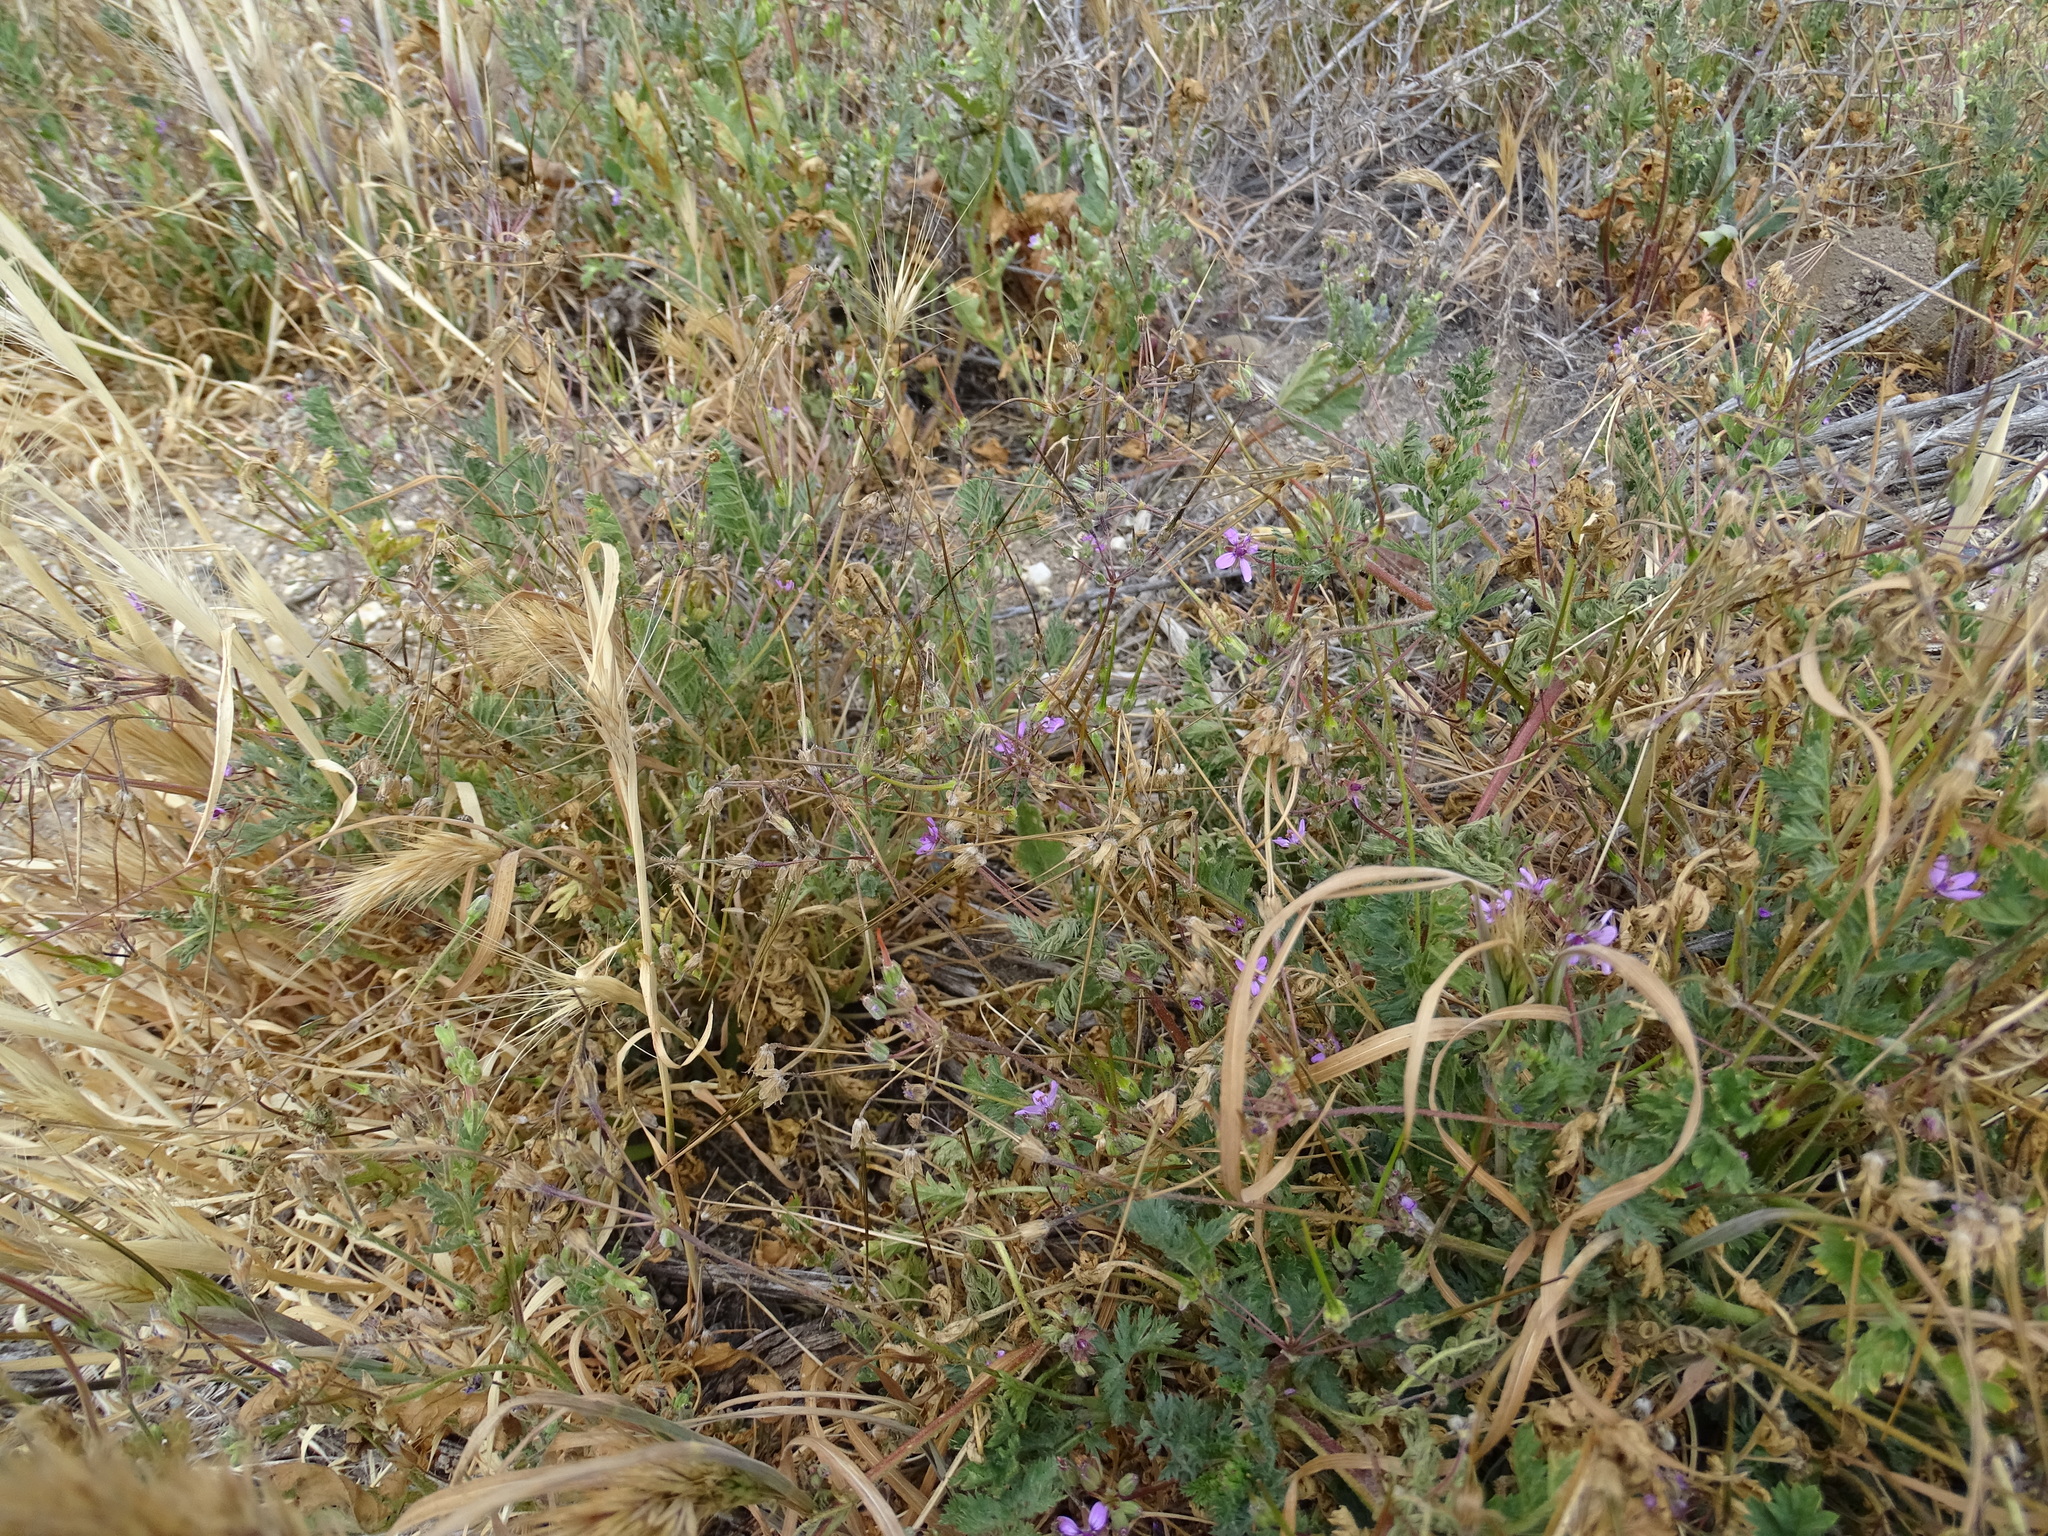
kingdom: Plantae
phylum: Tracheophyta
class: Magnoliopsida
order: Geraniales
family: Geraniaceae
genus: Erodium
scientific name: Erodium cicutarium
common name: Common stork's-bill
